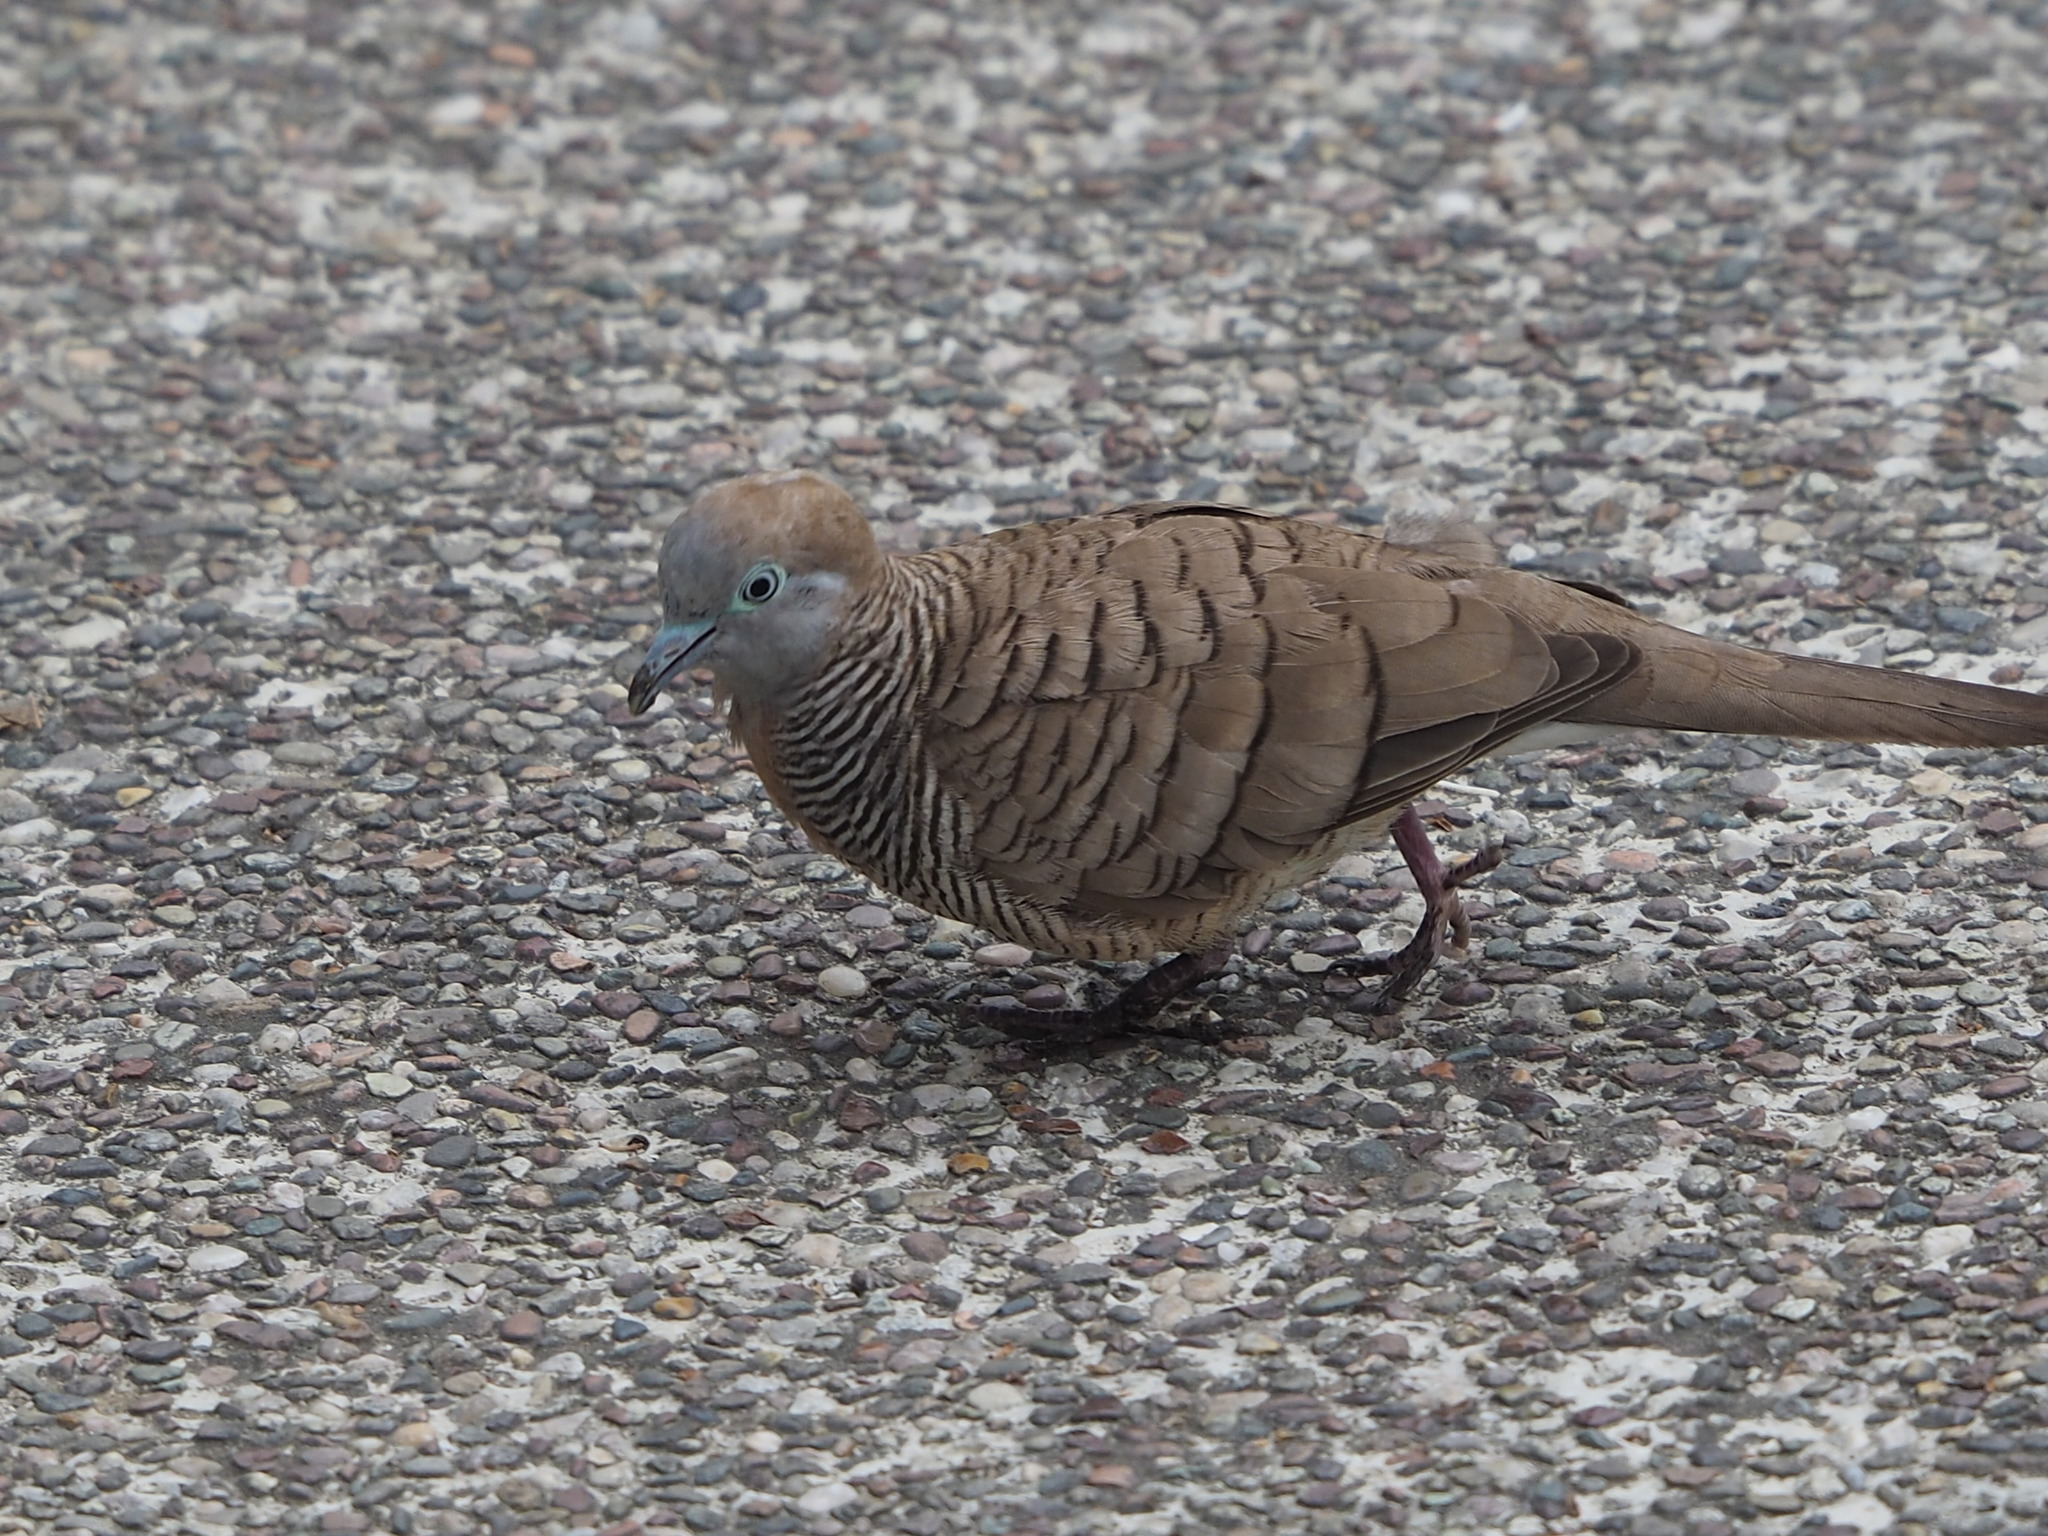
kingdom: Animalia
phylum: Chordata
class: Aves
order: Columbiformes
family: Columbidae
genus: Geopelia
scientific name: Geopelia striata
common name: Zebra dove
